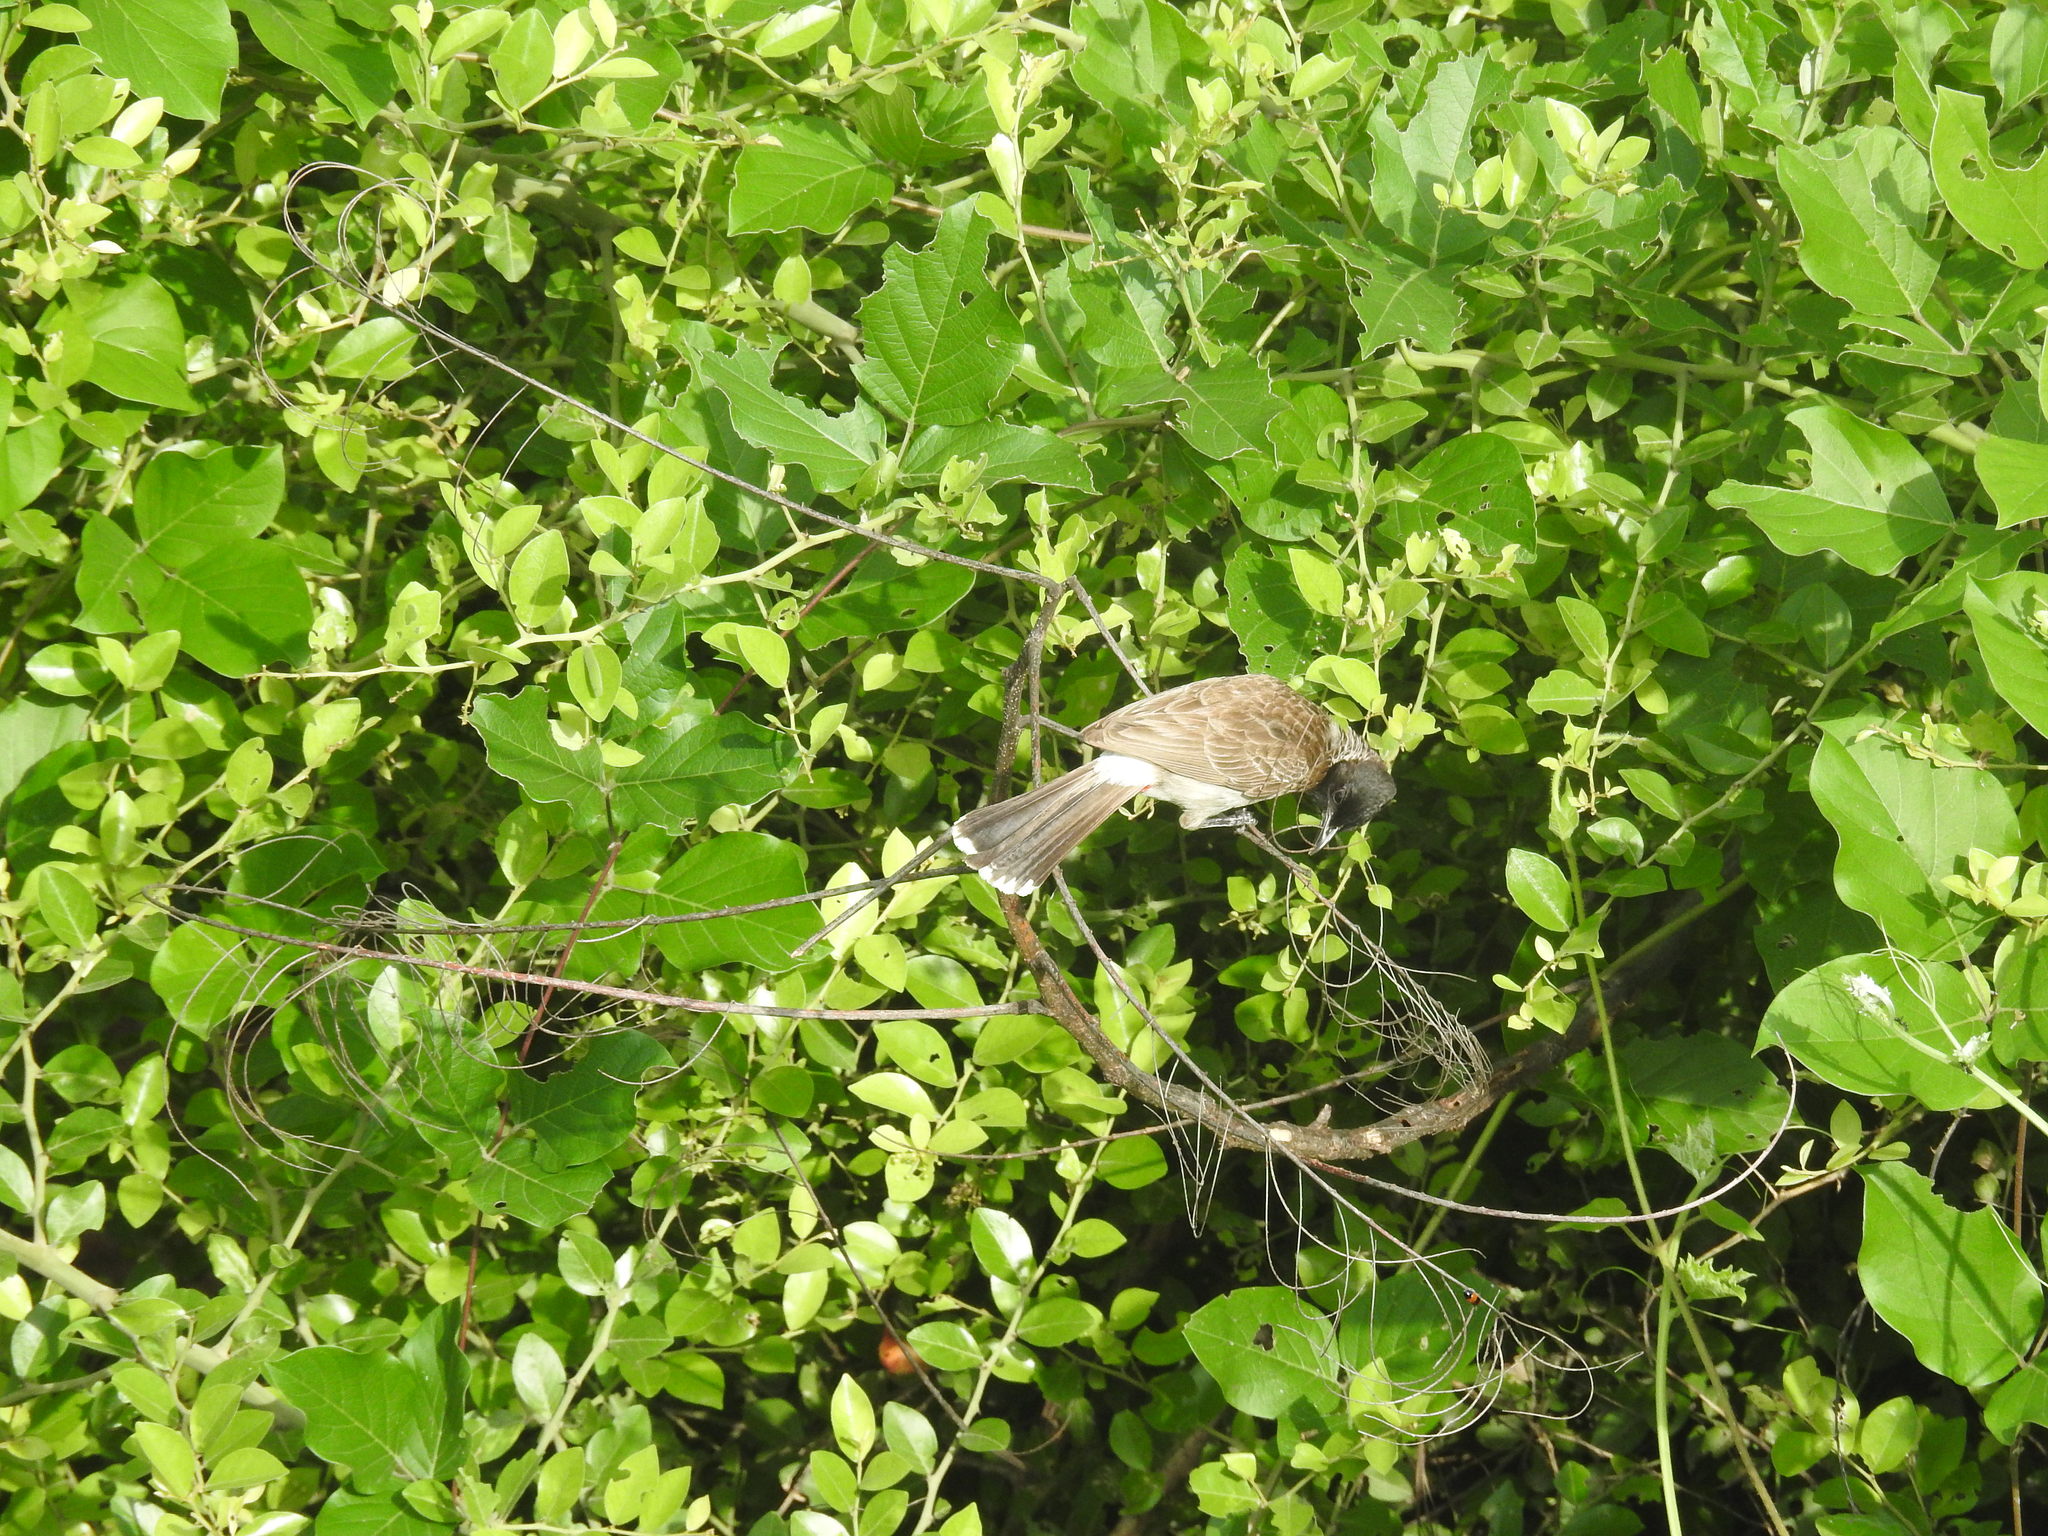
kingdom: Animalia
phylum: Chordata
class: Aves
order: Passeriformes
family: Pycnonotidae
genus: Pycnonotus
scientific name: Pycnonotus cafer
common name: Red-vented bulbul
